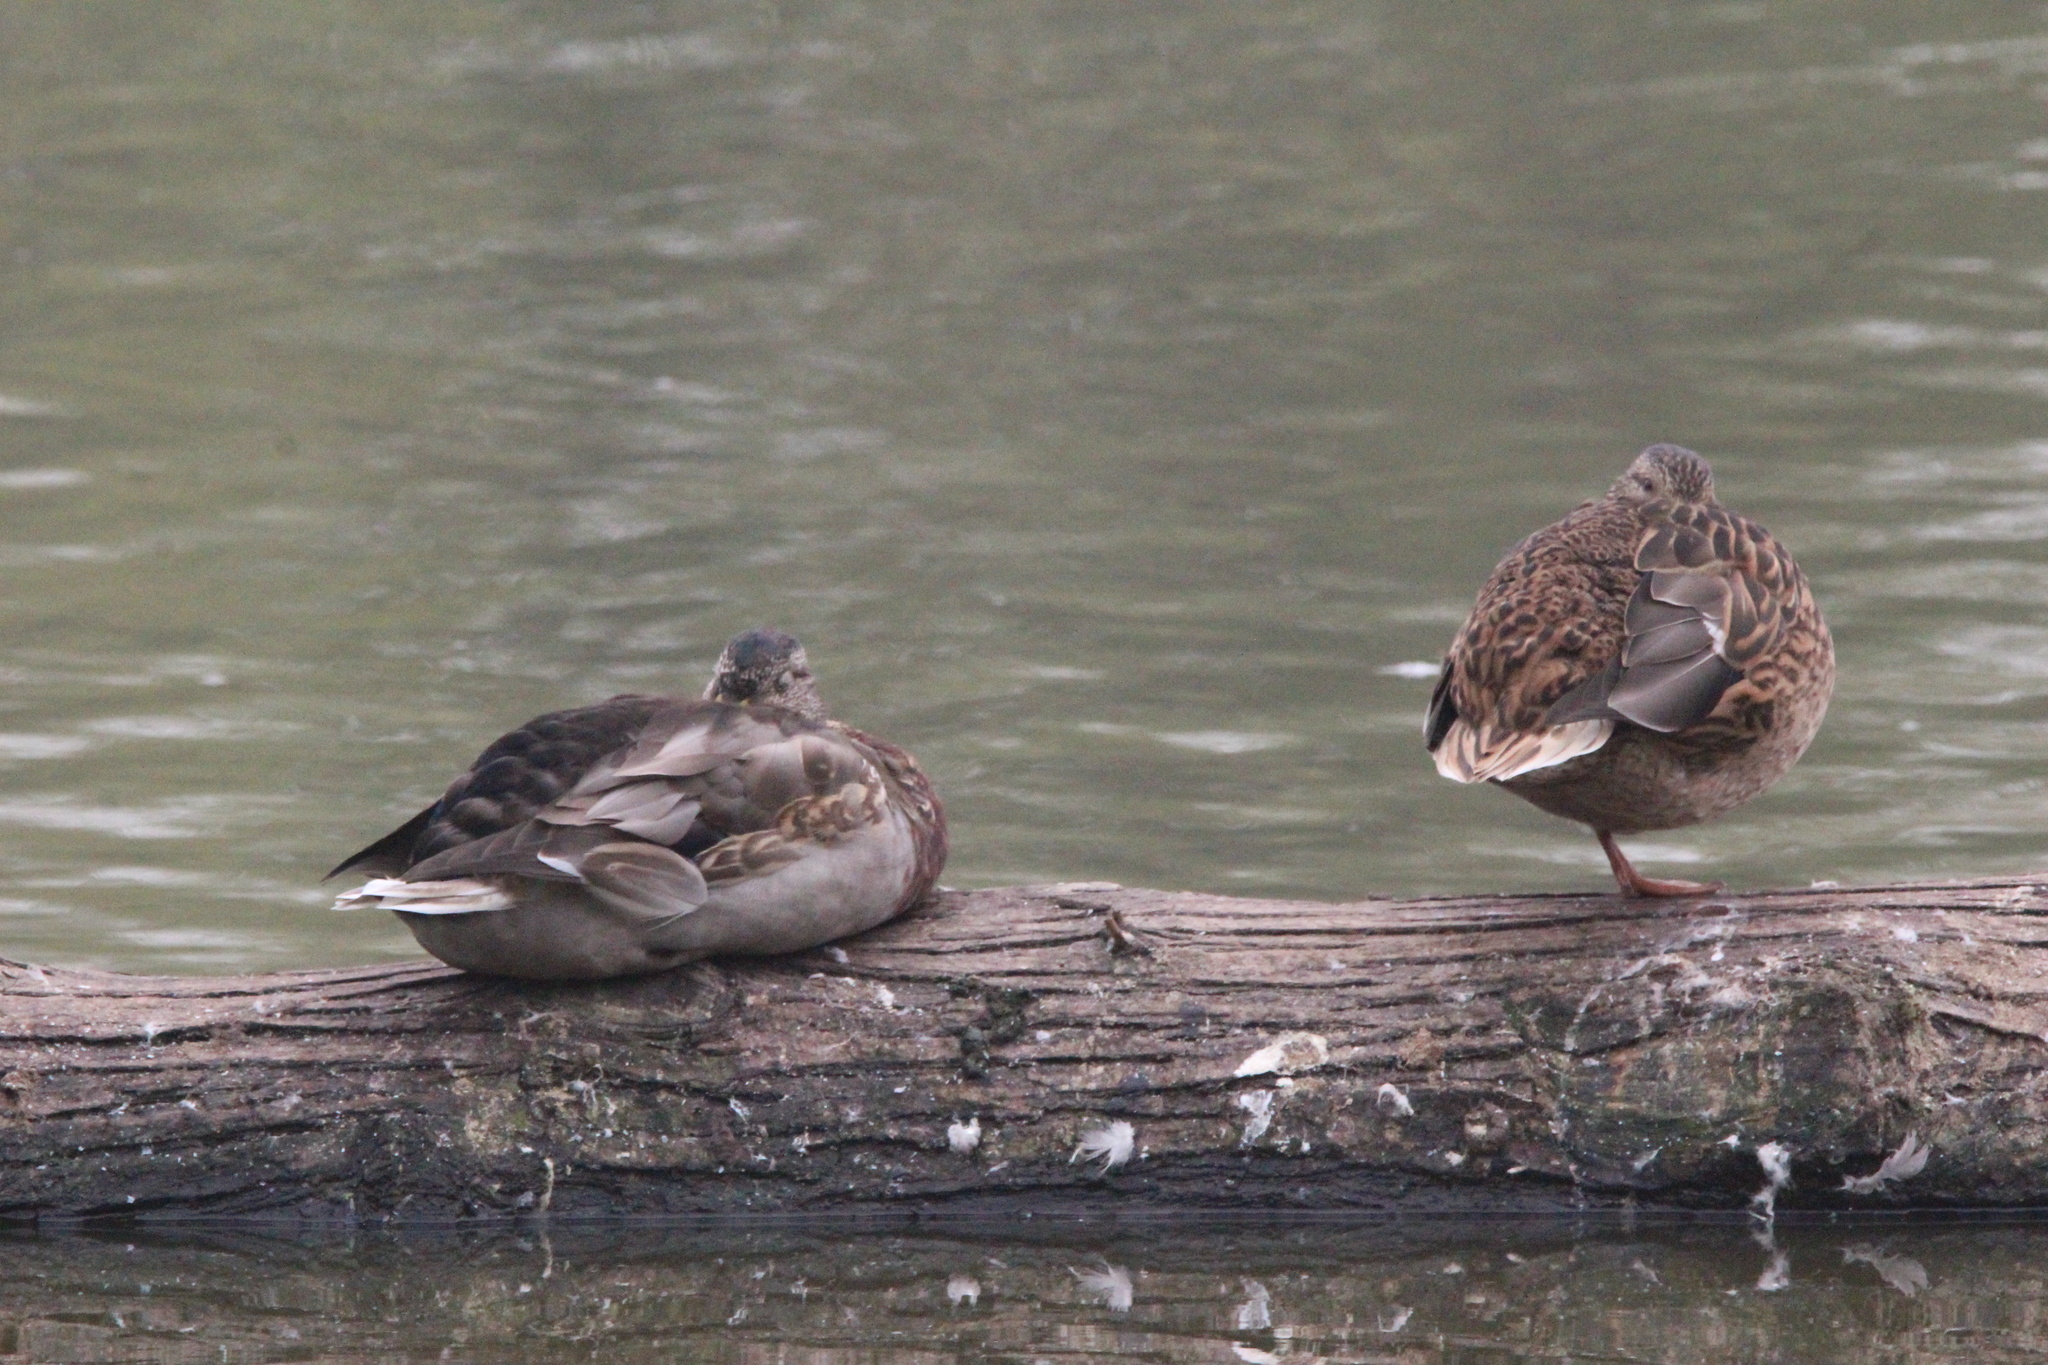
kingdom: Animalia
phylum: Chordata
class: Aves
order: Anseriformes
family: Anatidae
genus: Anas
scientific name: Anas platyrhynchos
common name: Mallard
